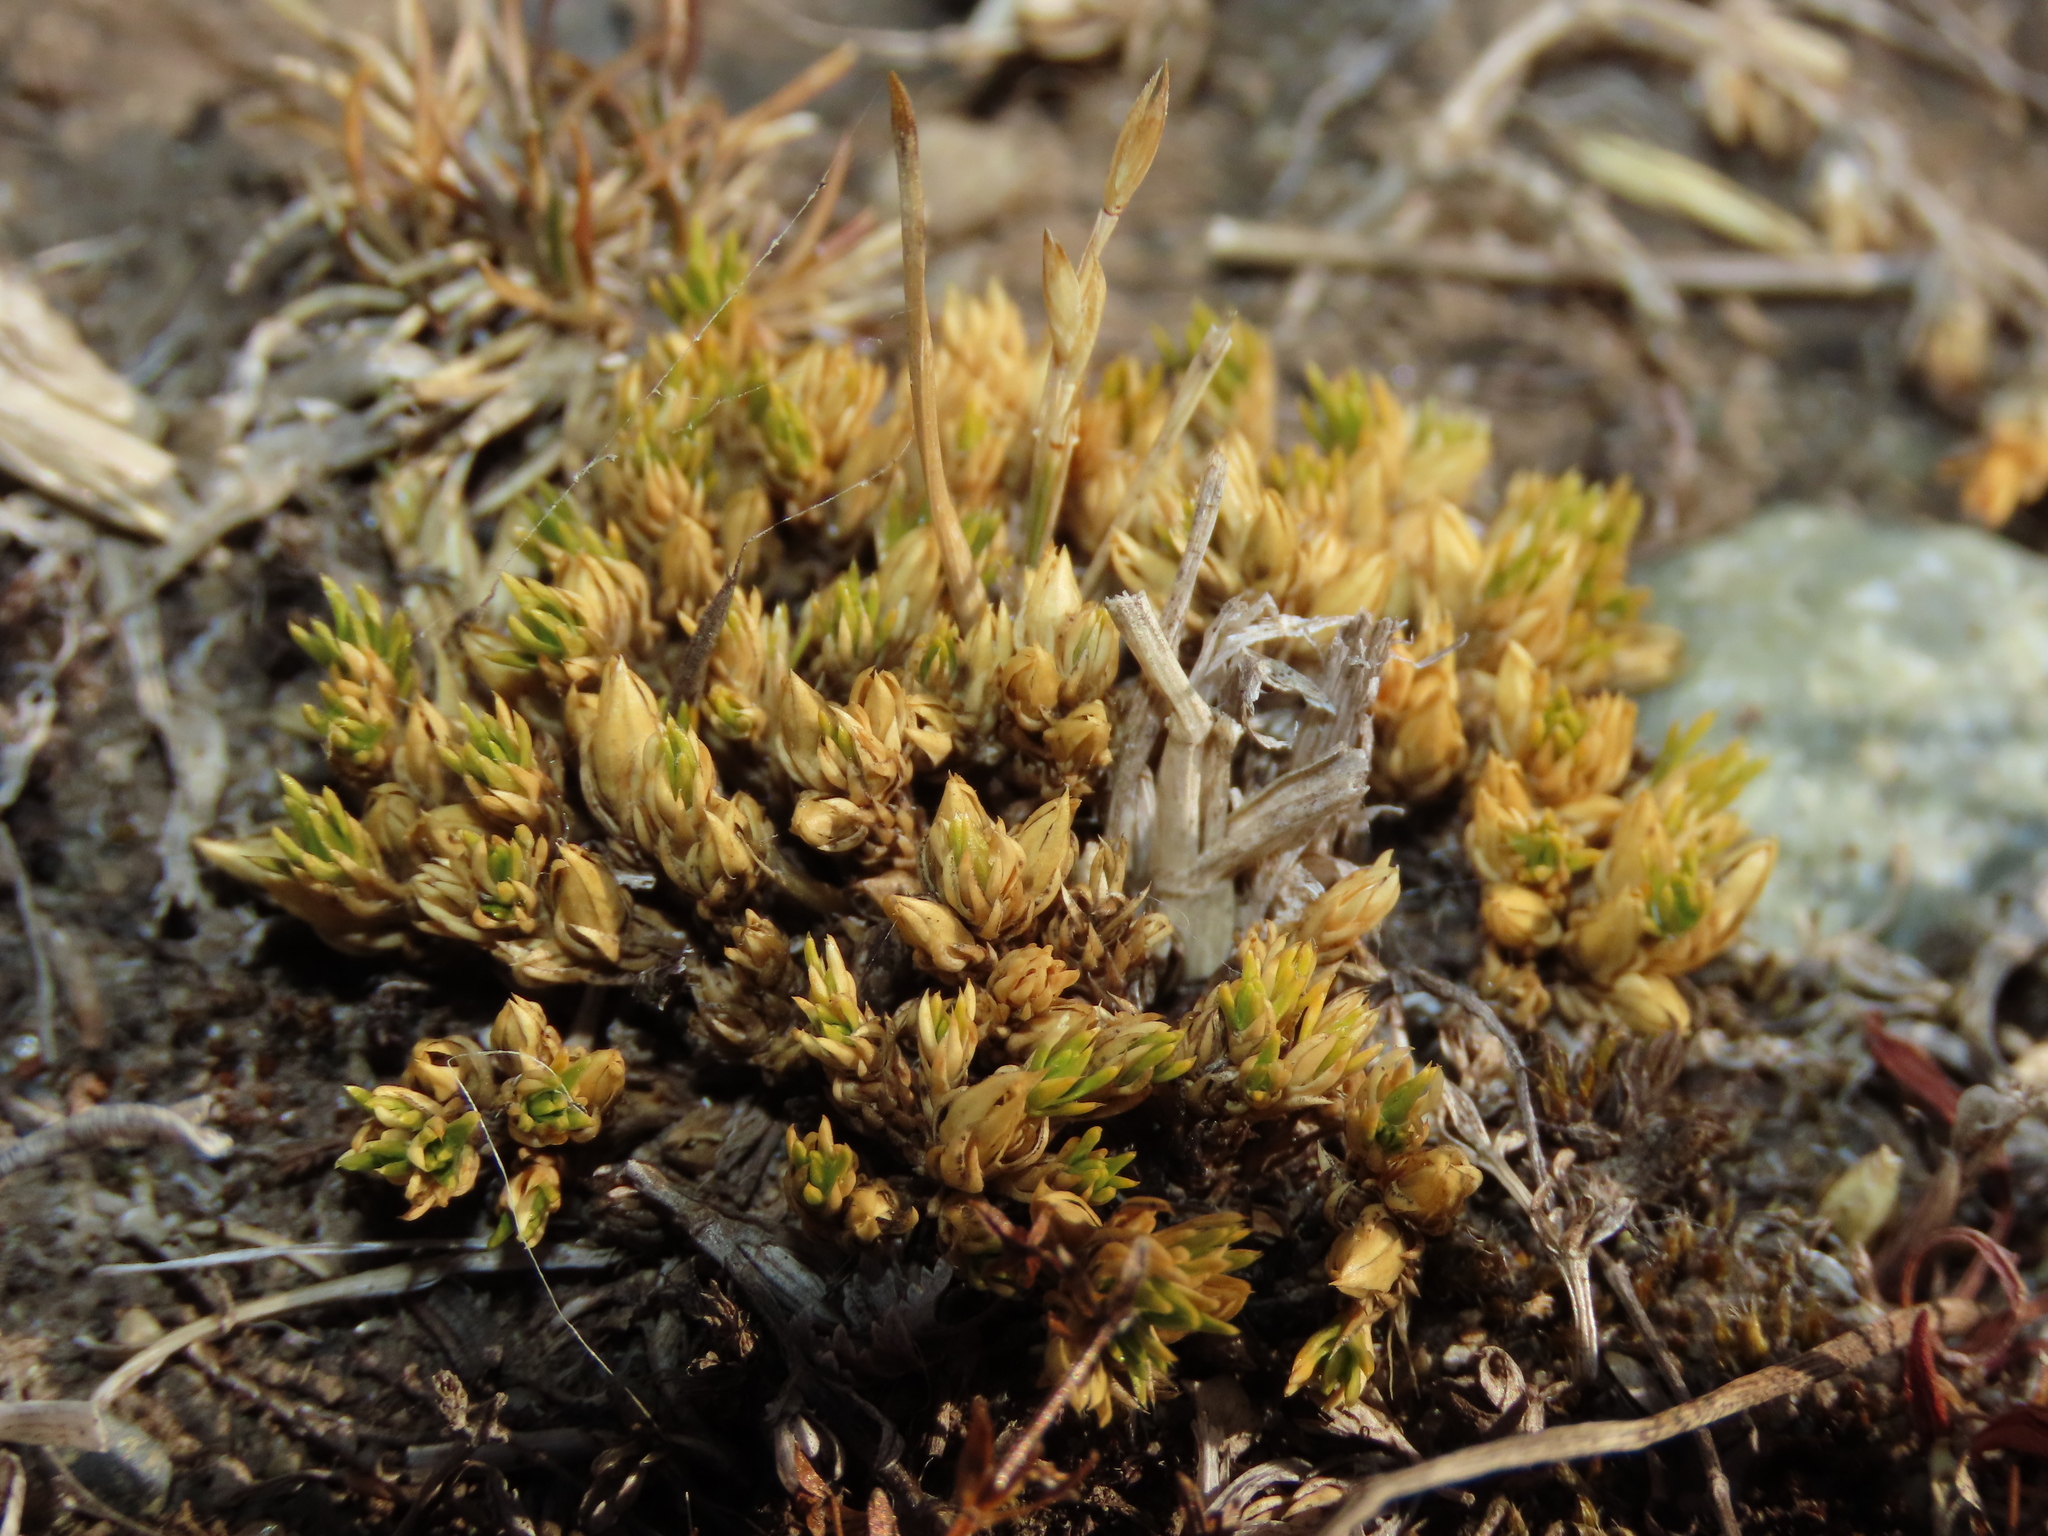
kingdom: Plantae
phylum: Tracheophyta
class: Magnoliopsida
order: Caryophyllales
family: Caryophyllaceae
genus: Colobanthus
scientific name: Colobanthus subulatus
